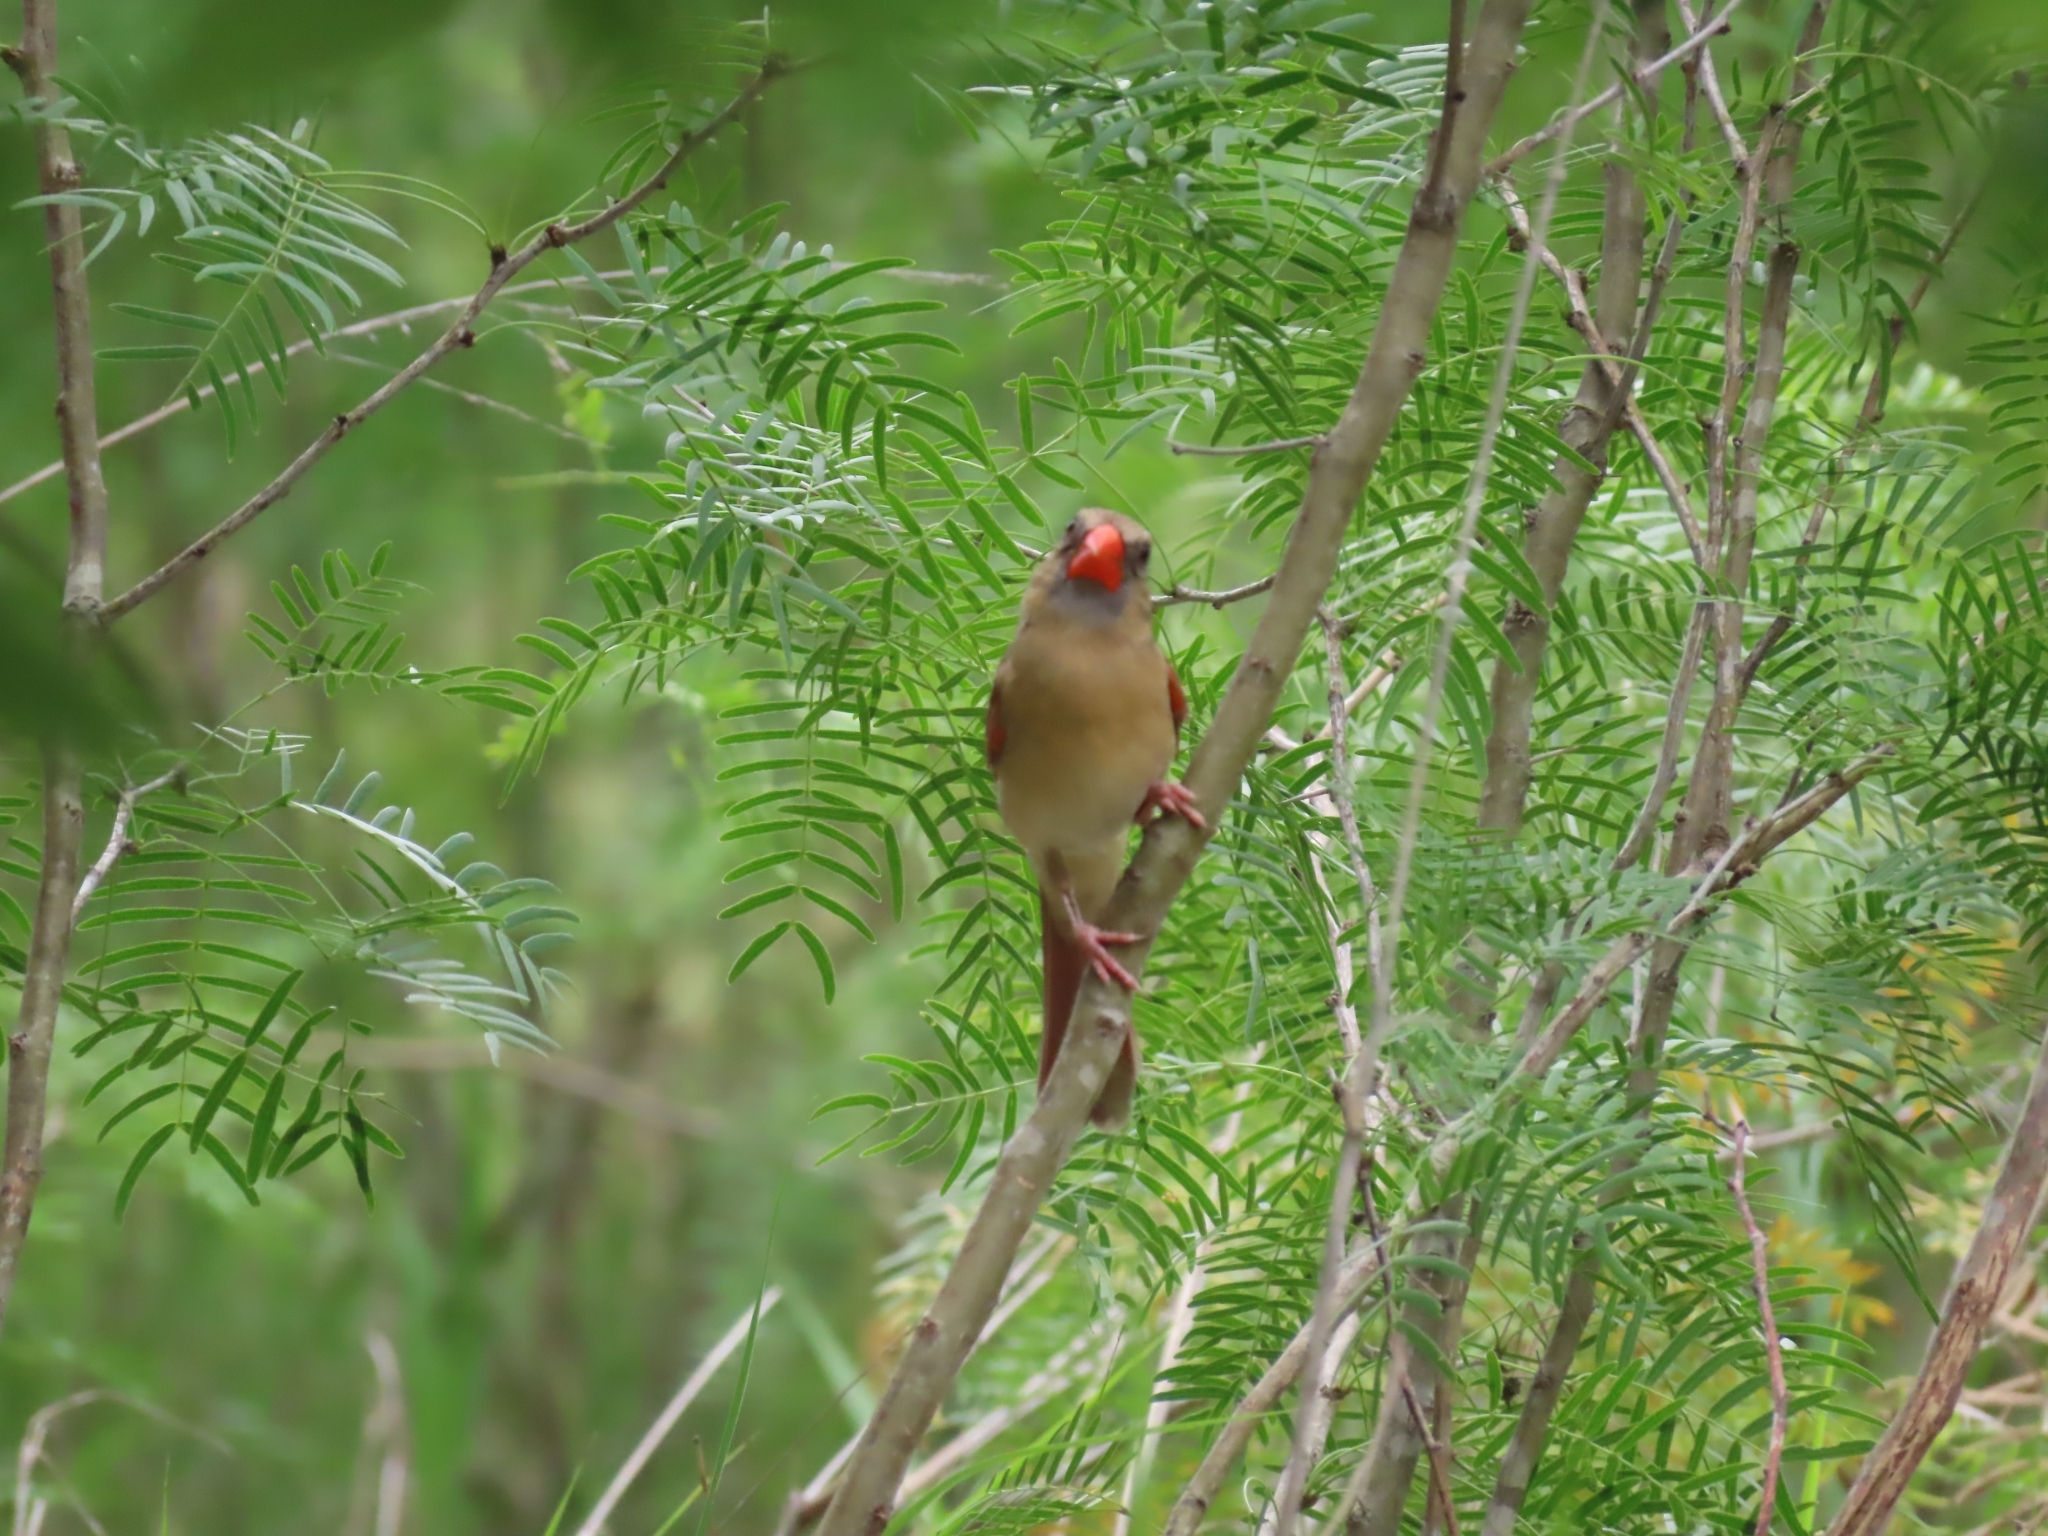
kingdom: Animalia
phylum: Chordata
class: Aves
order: Passeriformes
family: Cardinalidae
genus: Cardinalis
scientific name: Cardinalis cardinalis
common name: Northern cardinal
